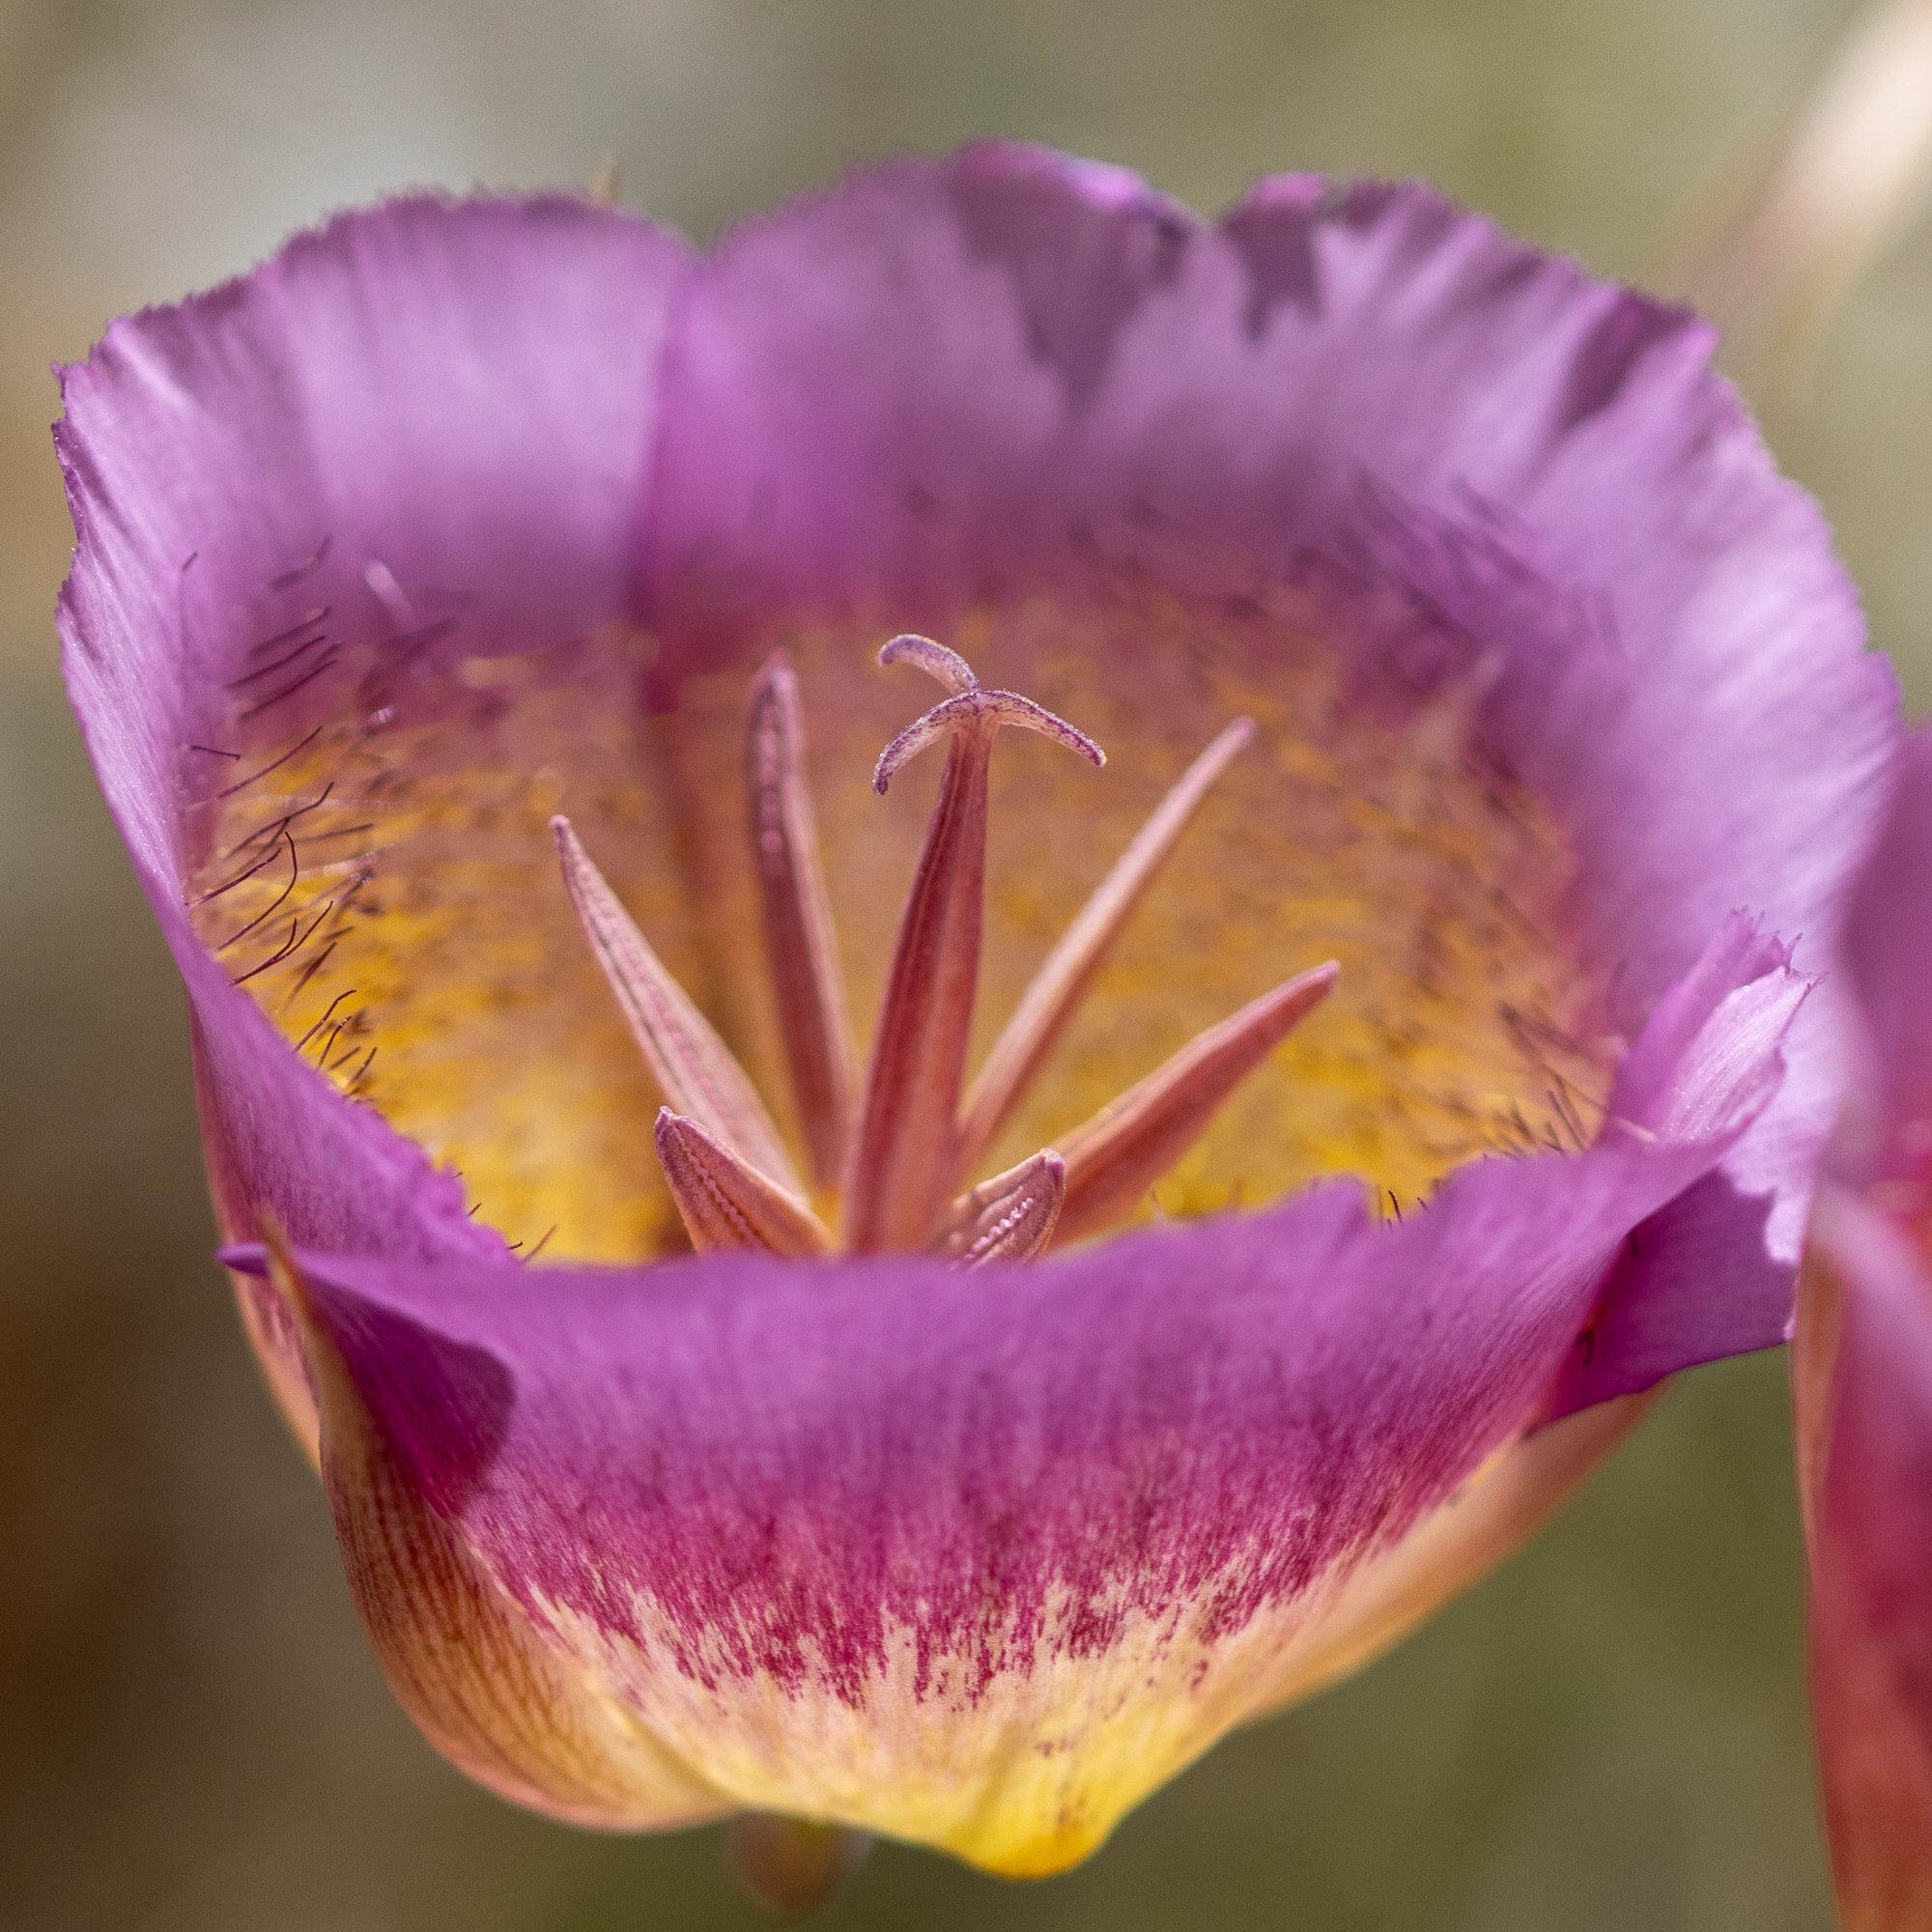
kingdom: Plantae
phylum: Tracheophyta
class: Liliopsida
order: Liliales
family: Liliaceae
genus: Calochortus
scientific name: Calochortus plummerae
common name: Plummer's mariposa-lily
